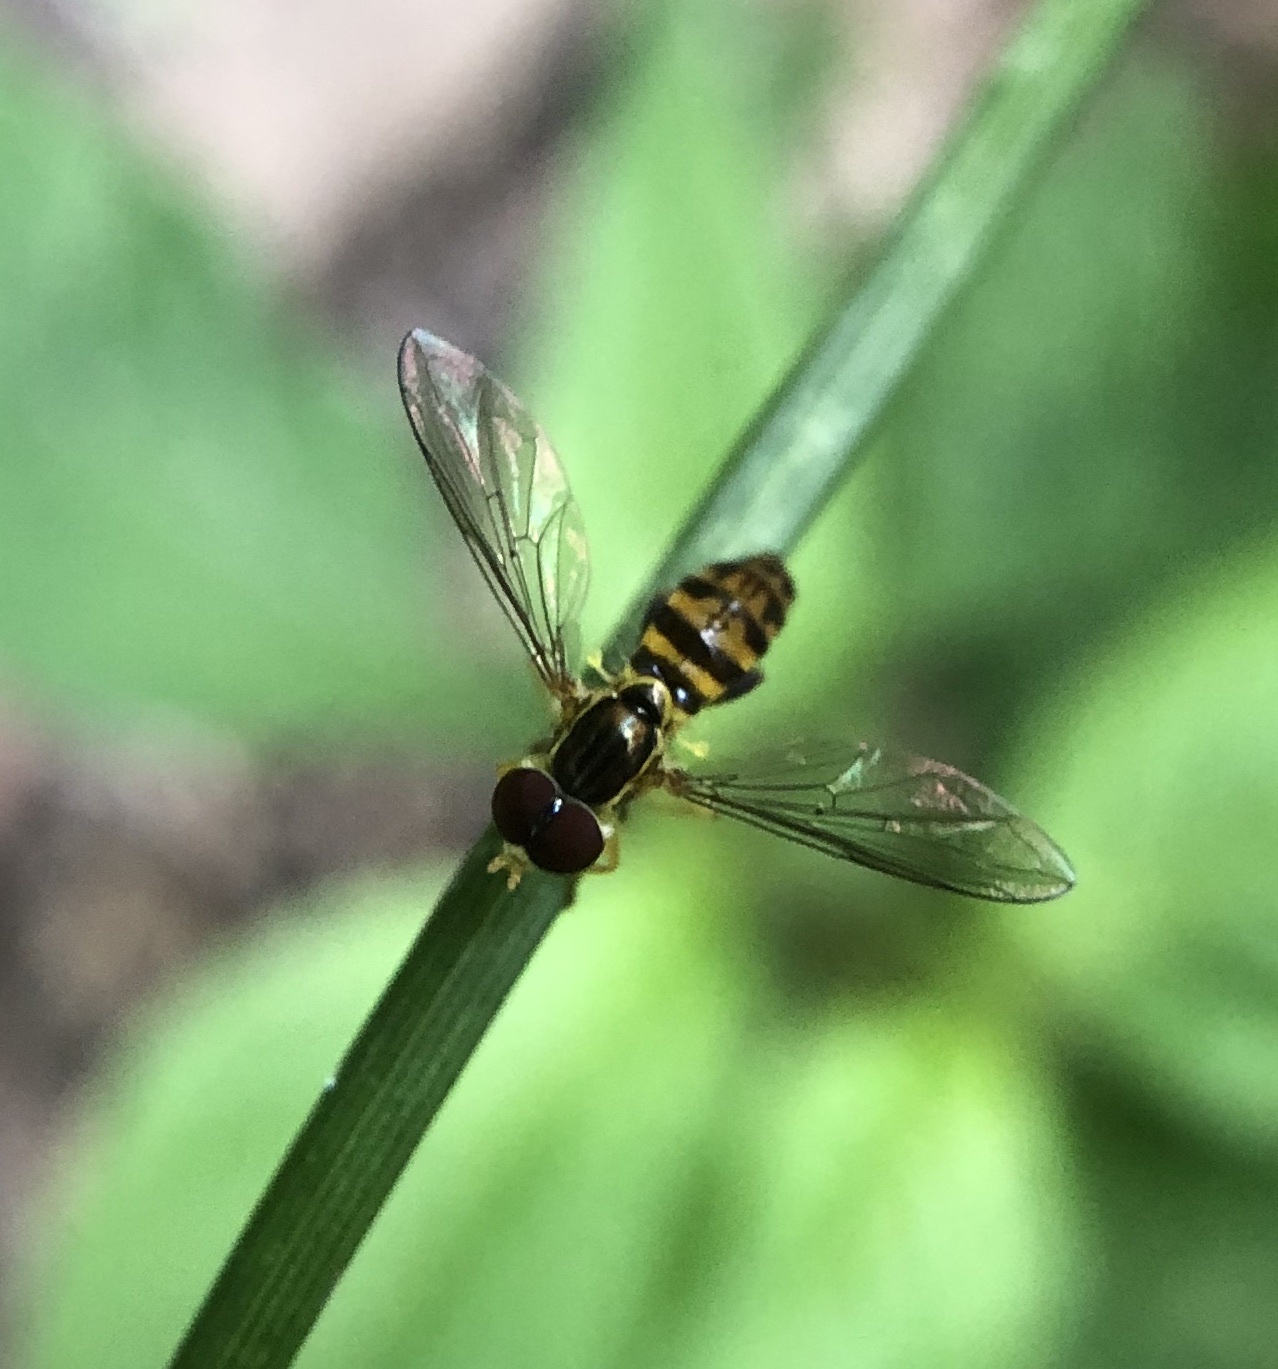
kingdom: Animalia
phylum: Arthropoda
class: Insecta
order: Diptera
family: Syrphidae
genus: Toxomerus
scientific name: Toxomerus geminatus
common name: Eastern calligrapher
